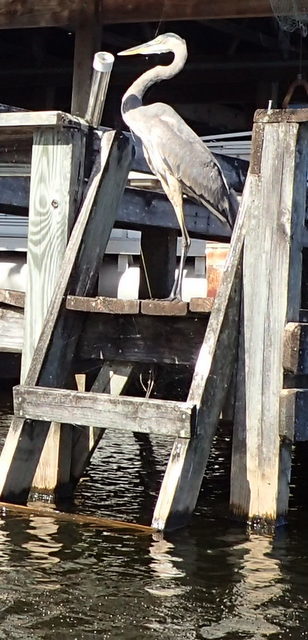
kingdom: Animalia
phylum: Chordata
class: Aves
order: Pelecaniformes
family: Ardeidae
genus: Ardea
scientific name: Ardea herodias
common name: Great blue heron
